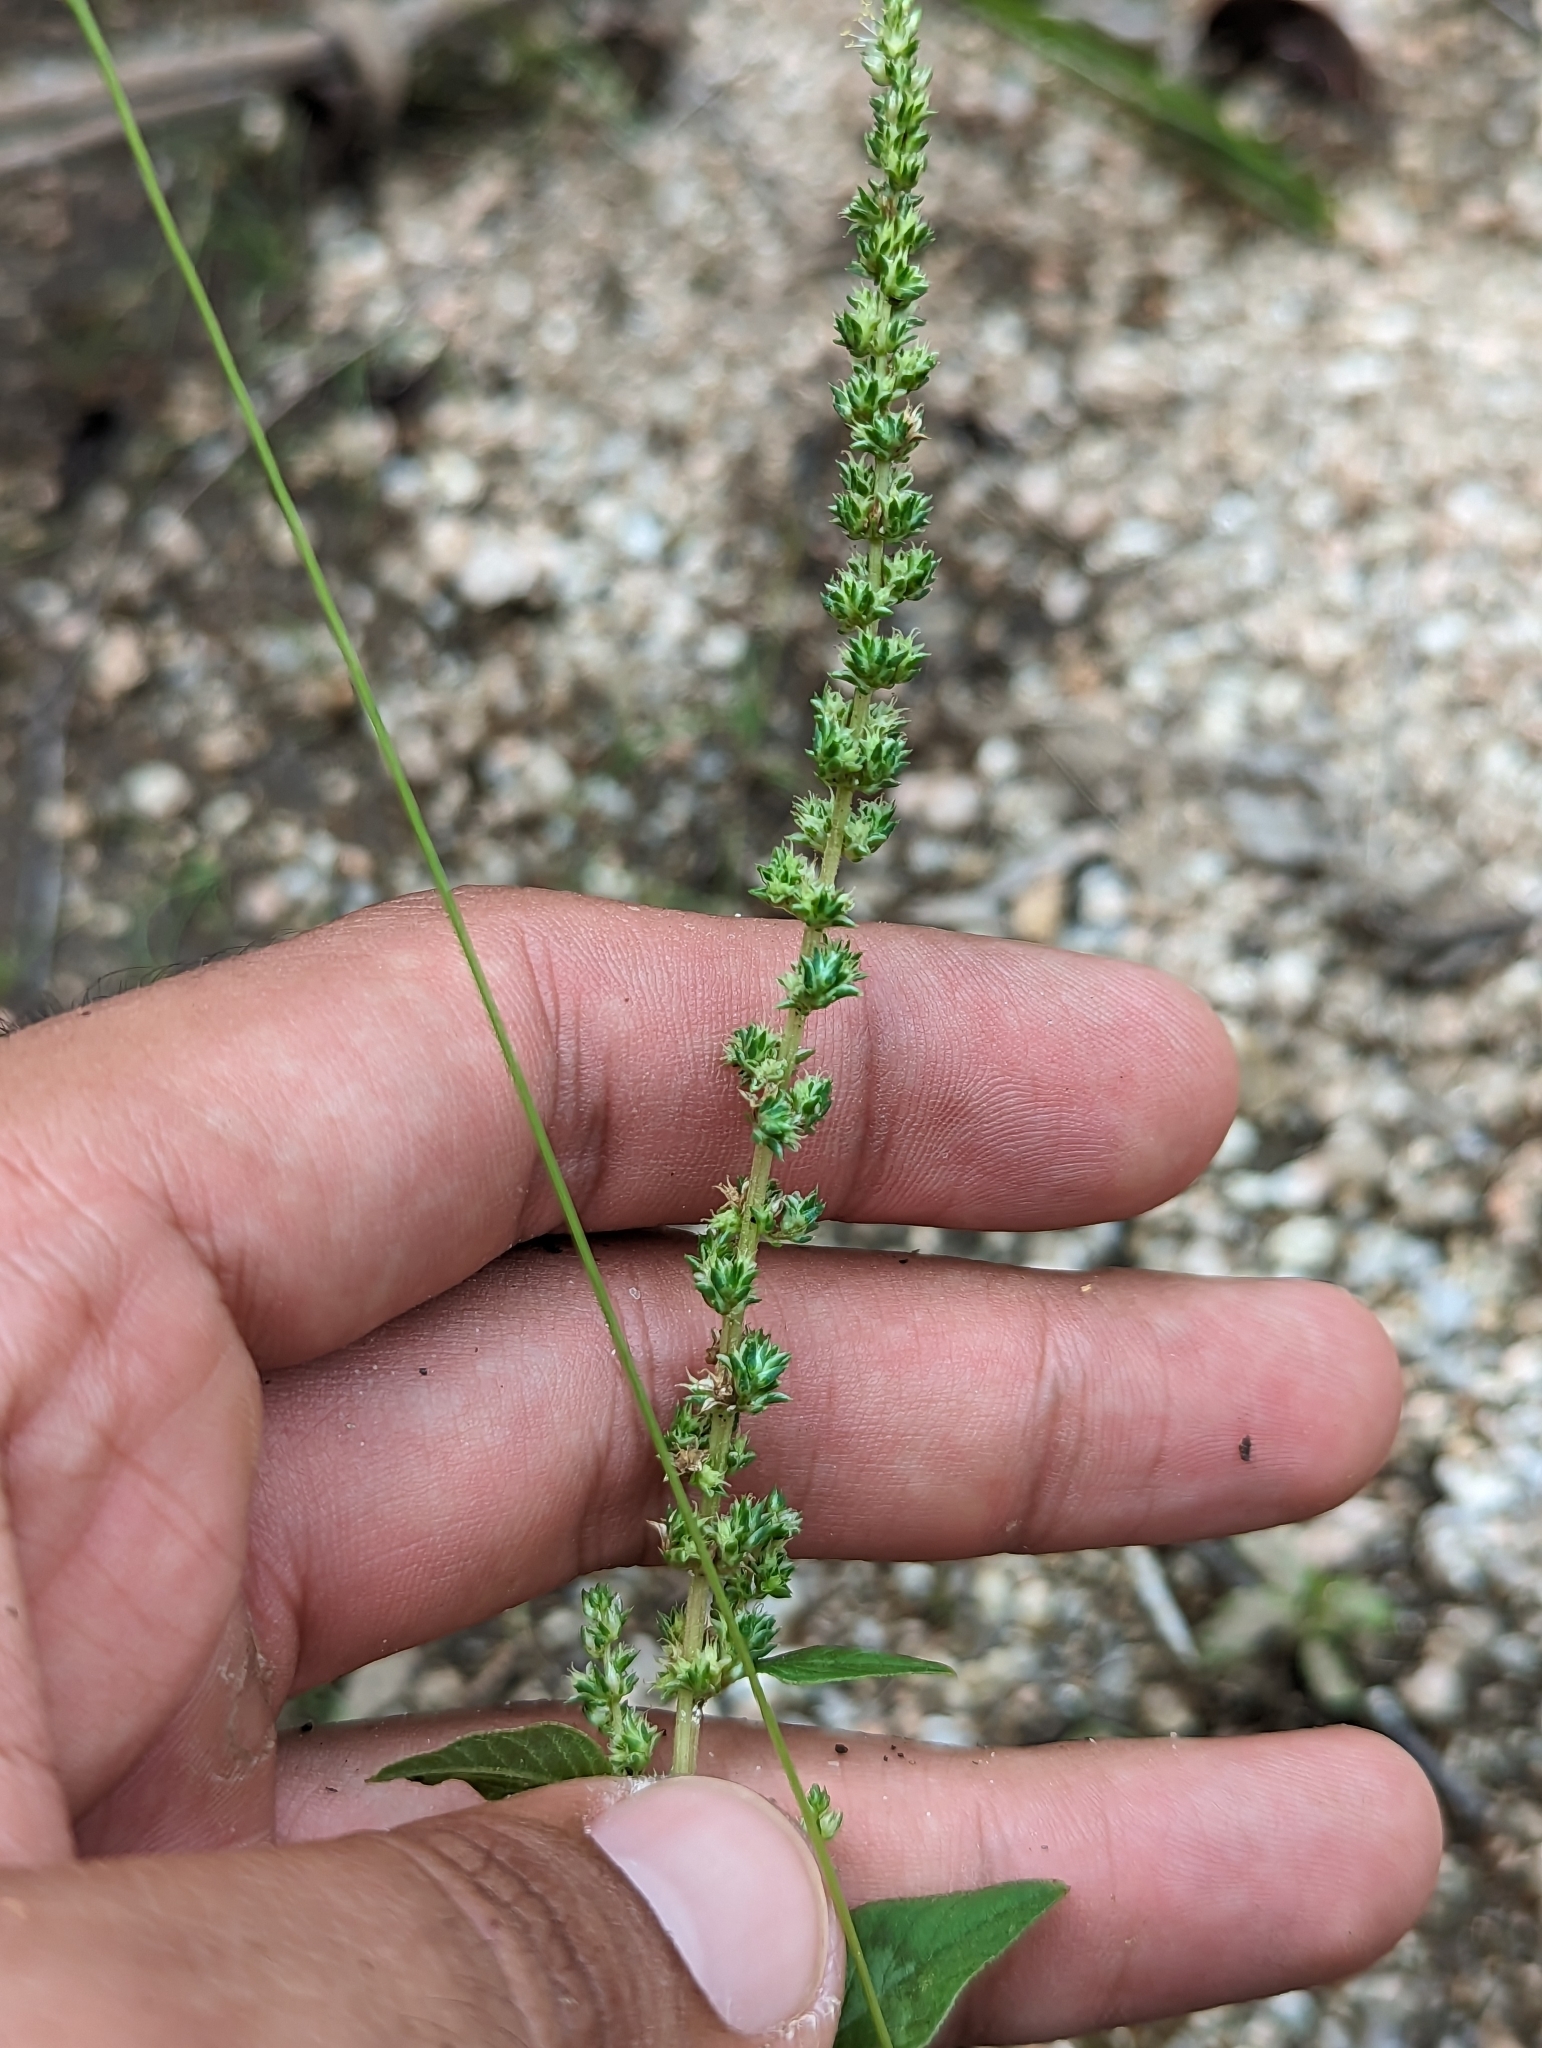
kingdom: Plantae
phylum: Tracheophyta
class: Magnoliopsida
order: Caryophyllales
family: Amaranthaceae
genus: Amaranthus
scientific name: Amaranthus palmeri
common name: Dioecious amaranth
